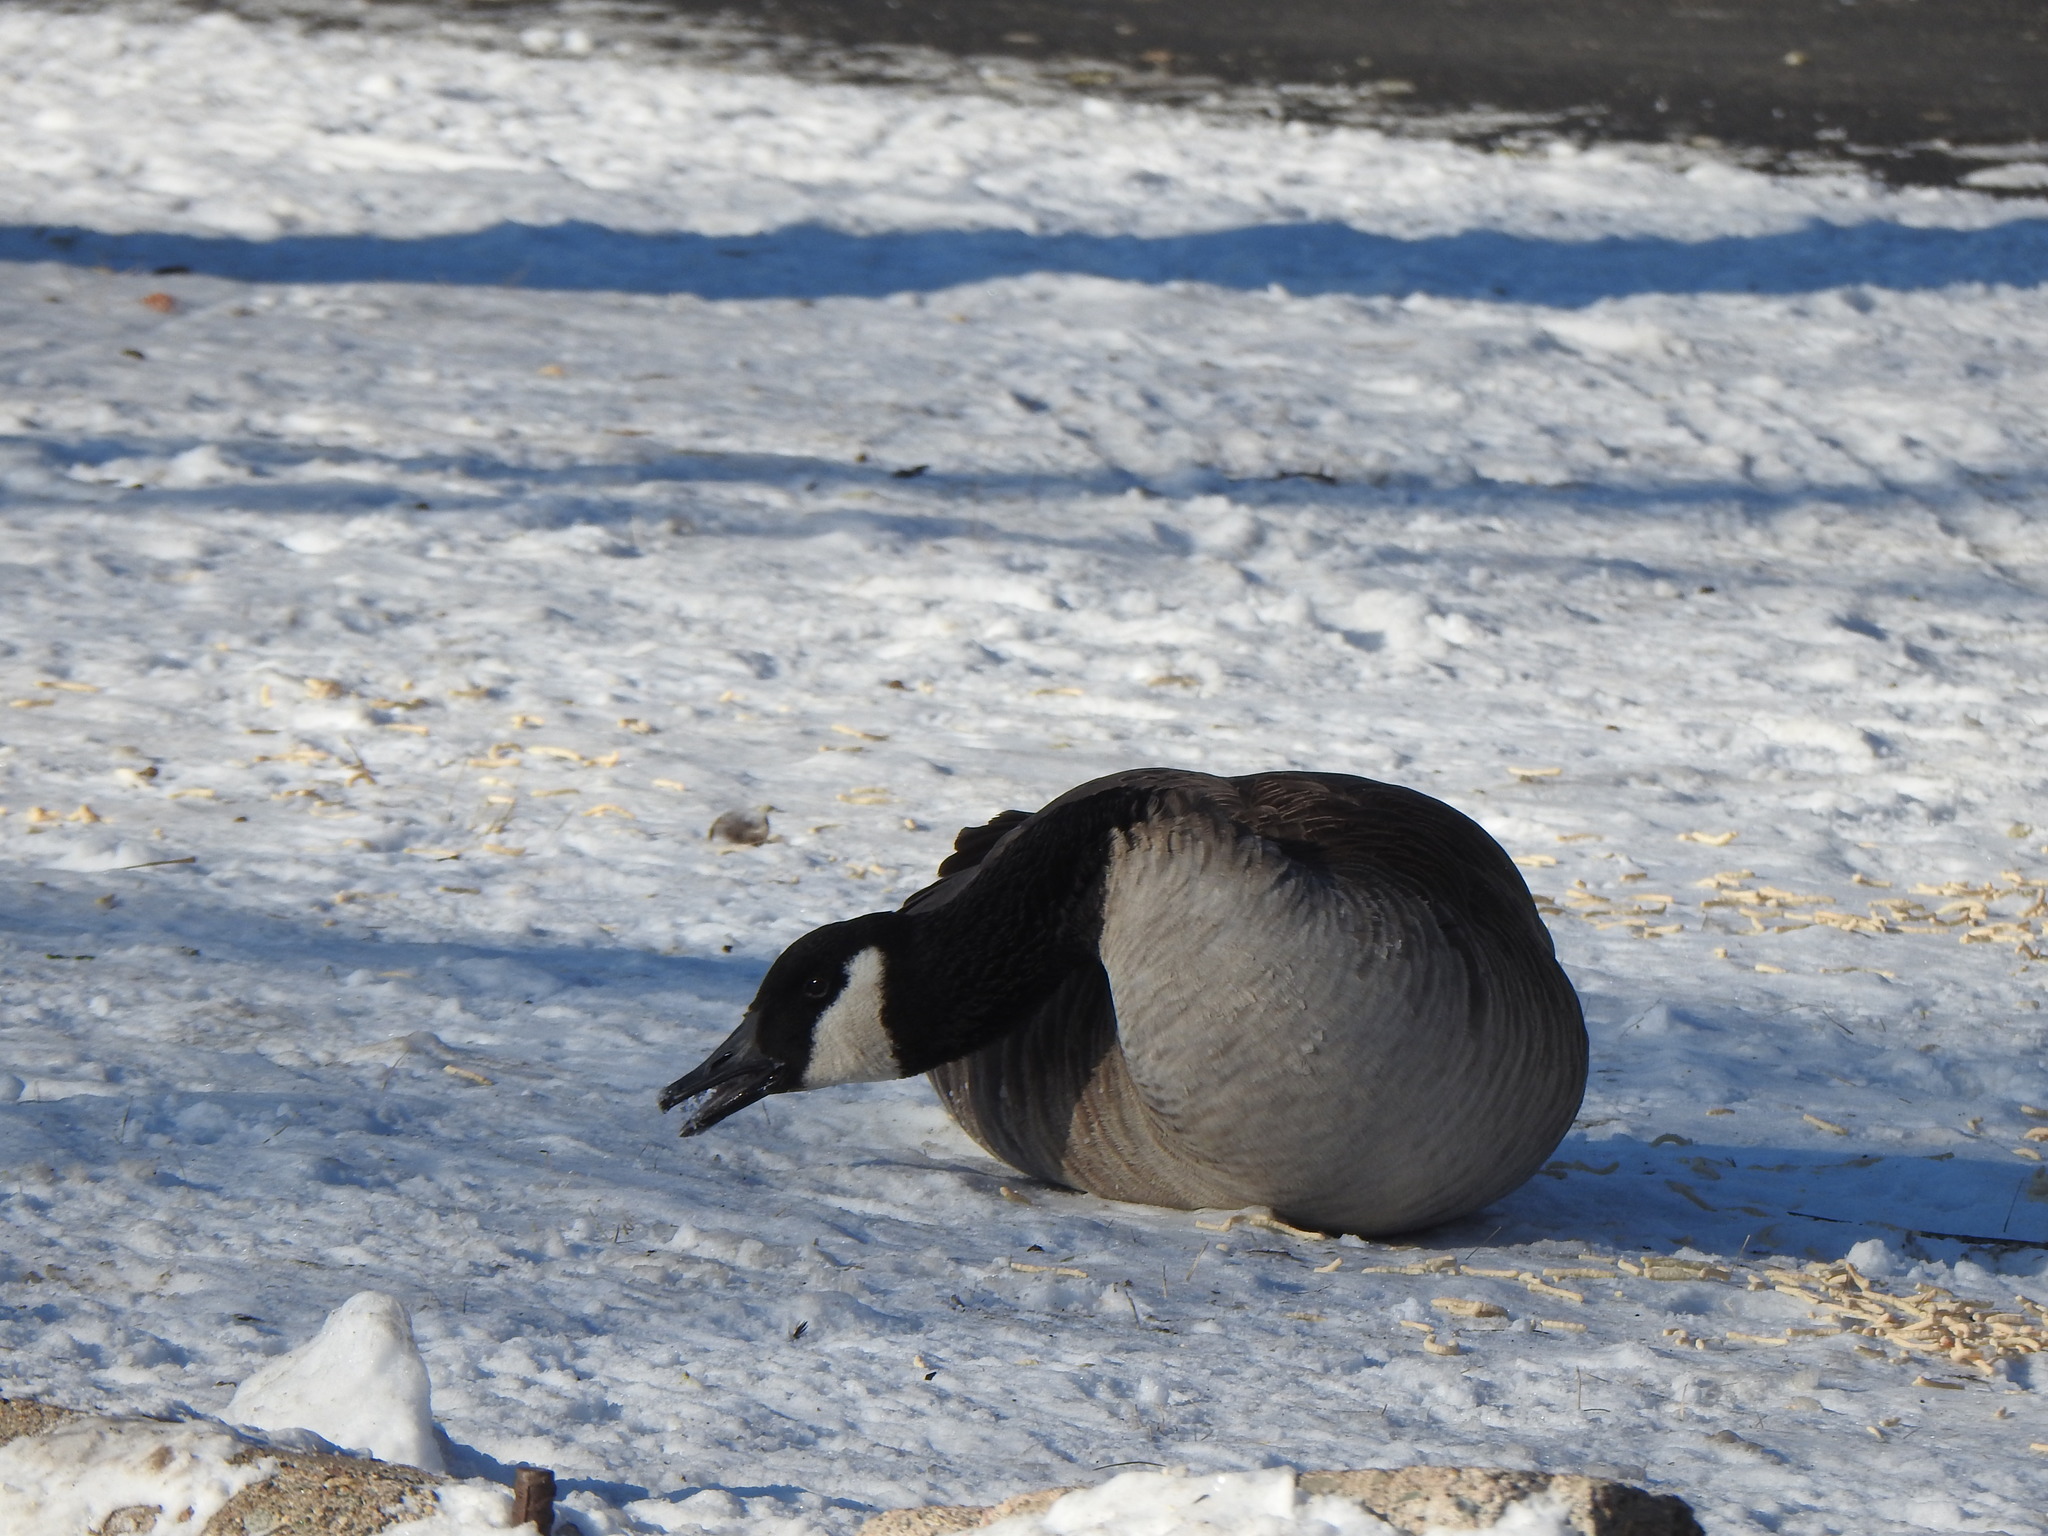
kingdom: Animalia
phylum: Chordata
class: Aves
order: Anseriformes
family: Anatidae
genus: Branta
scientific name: Branta canadensis
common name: Canada goose
